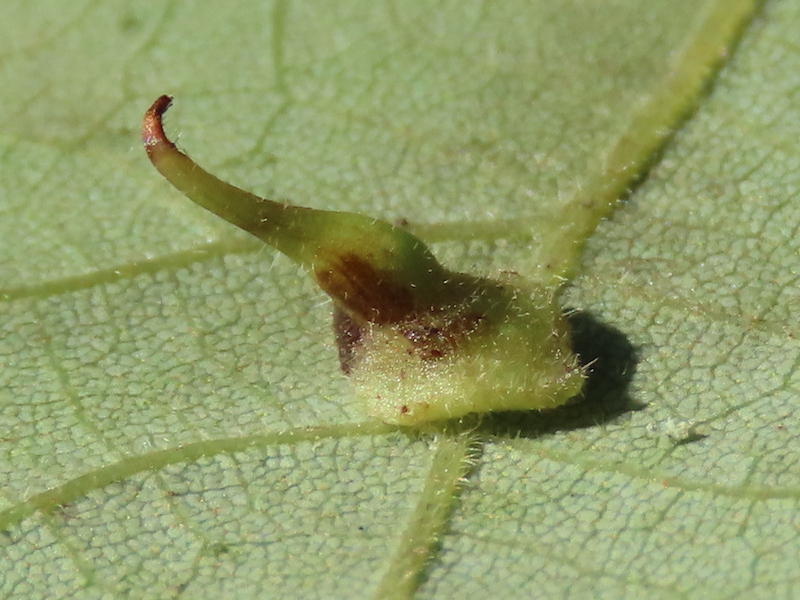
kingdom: Animalia
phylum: Arthropoda
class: Insecta
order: Diptera
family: Cecidomyiidae
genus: Caryomyia
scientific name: Caryomyia inclinata
